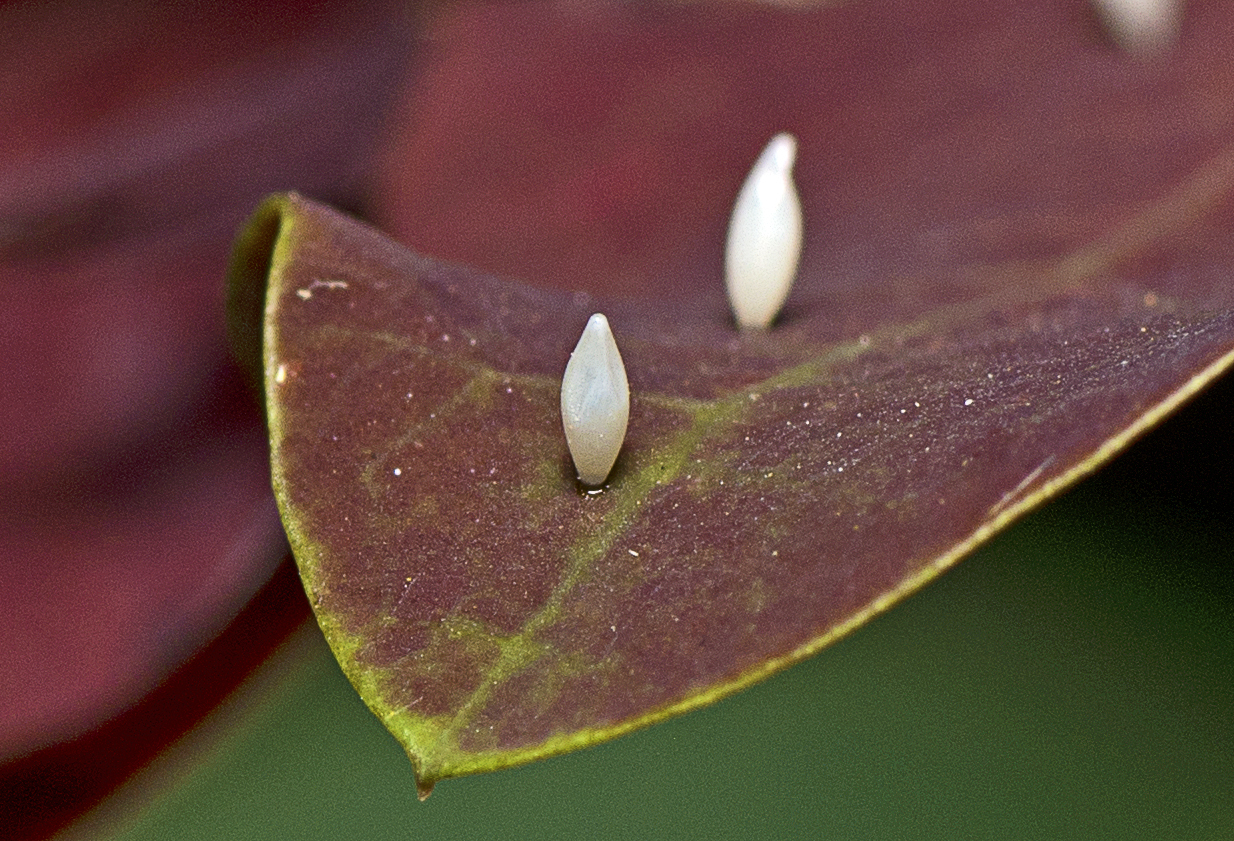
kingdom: Animalia
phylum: Arthropoda
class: Insecta
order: Lepidoptera
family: Pieridae
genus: Eurema
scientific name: Eurema
